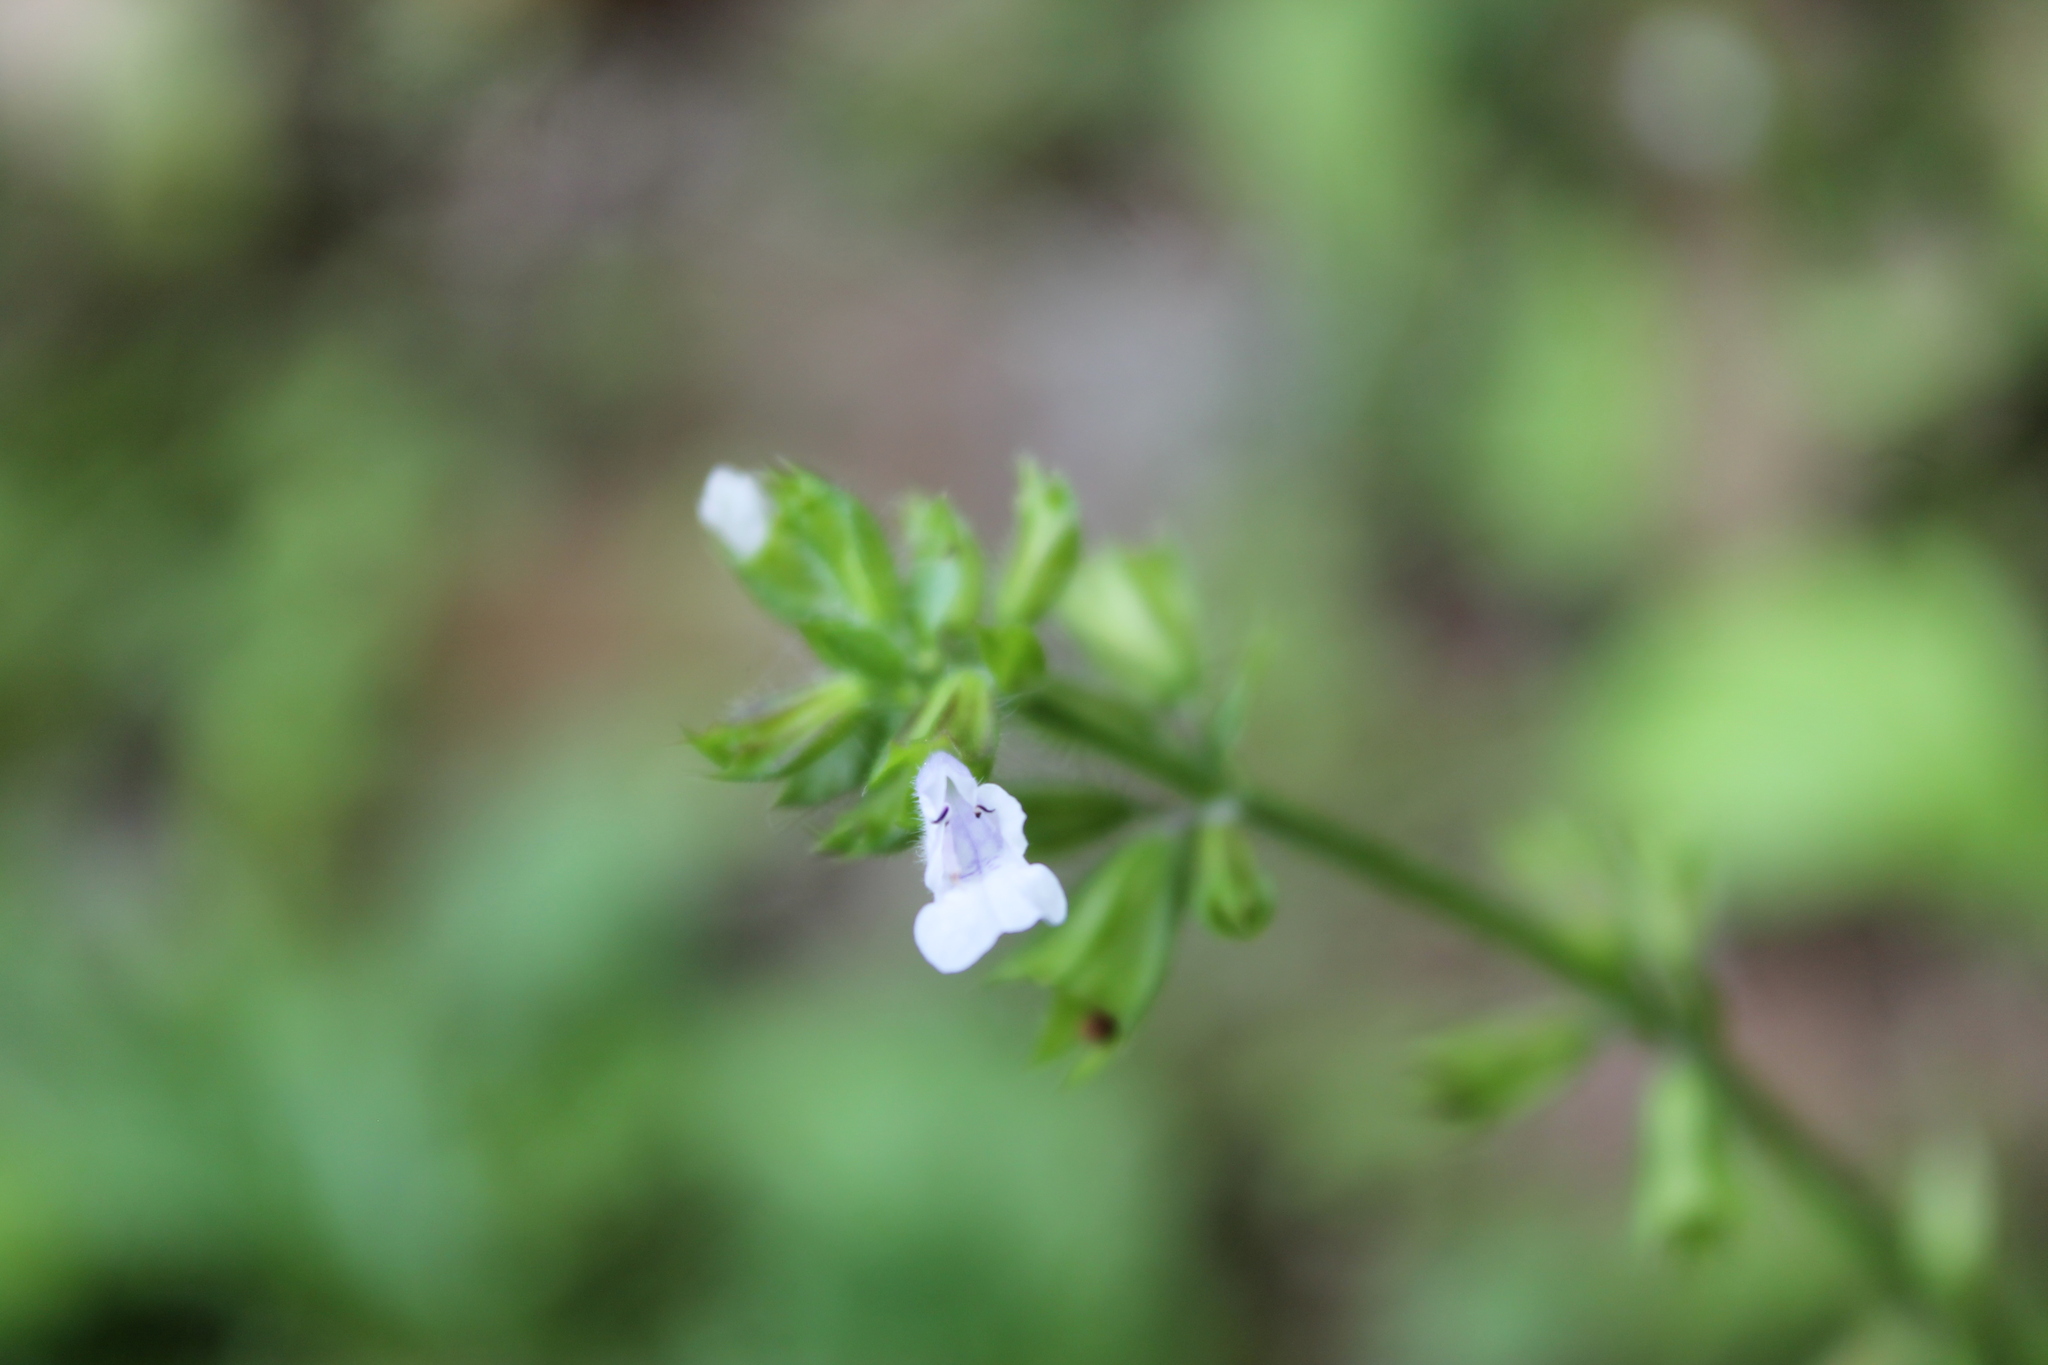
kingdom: Plantae
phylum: Tracheophyta
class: Magnoliopsida
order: Lamiales
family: Lamiaceae
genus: Salvia
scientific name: Salvia lyrata
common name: Cancerweed
